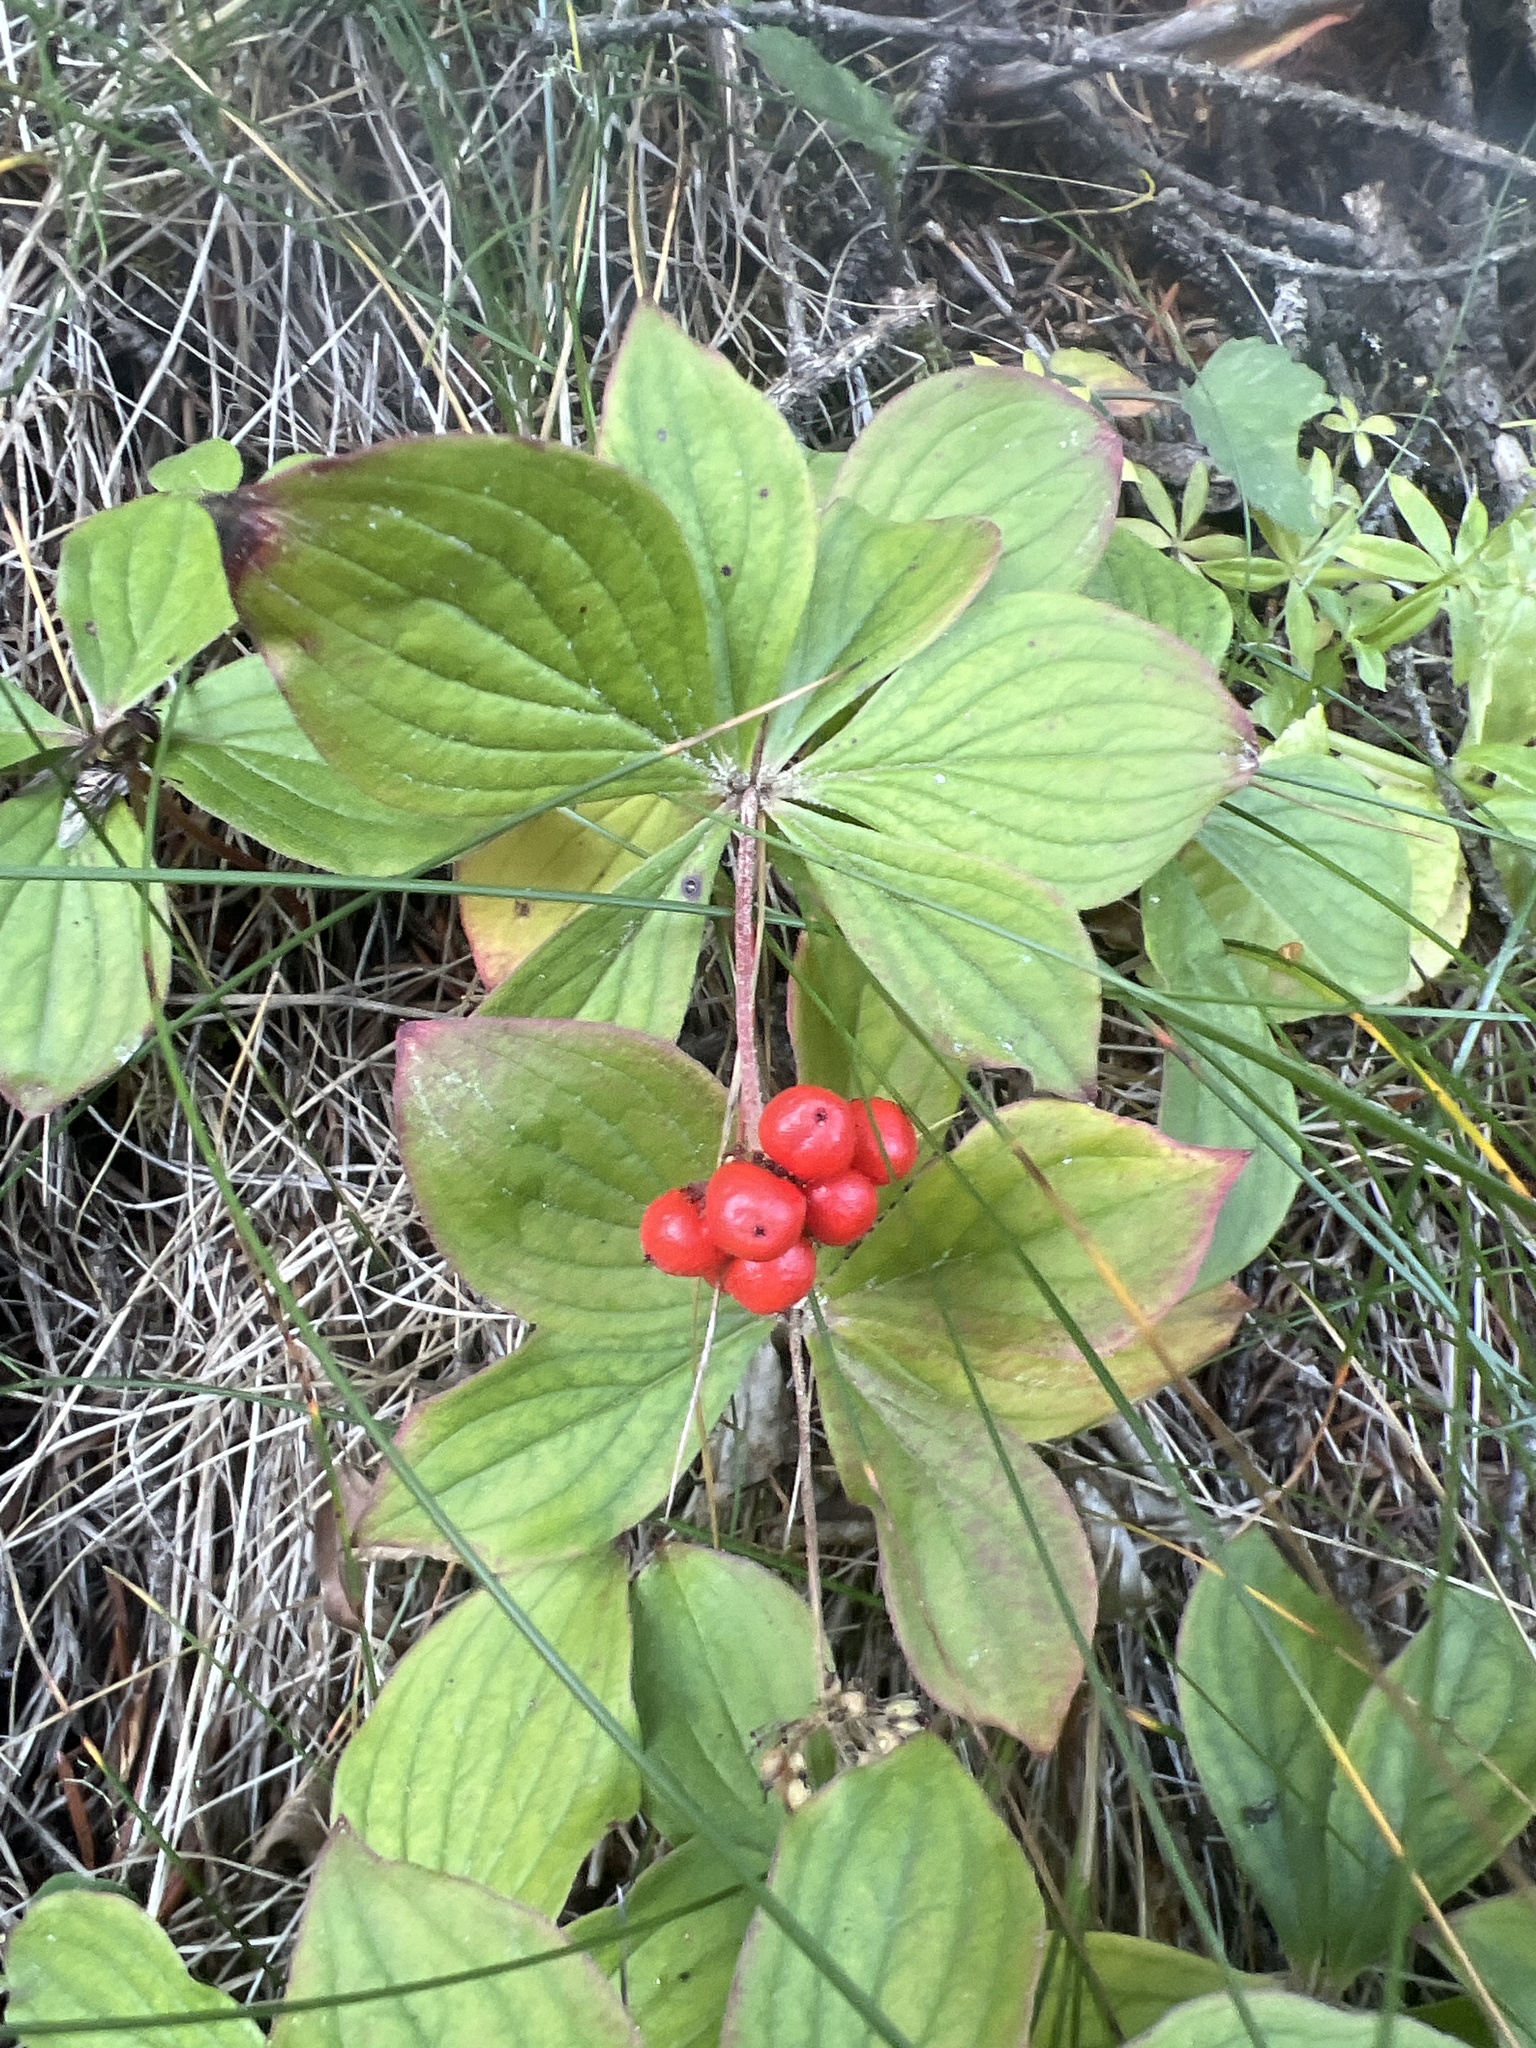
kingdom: Plantae
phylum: Tracheophyta
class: Magnoliopsida
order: Cornales
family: Cornaceae
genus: Cornus
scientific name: Cornus canadensis
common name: Creeping dogwood
